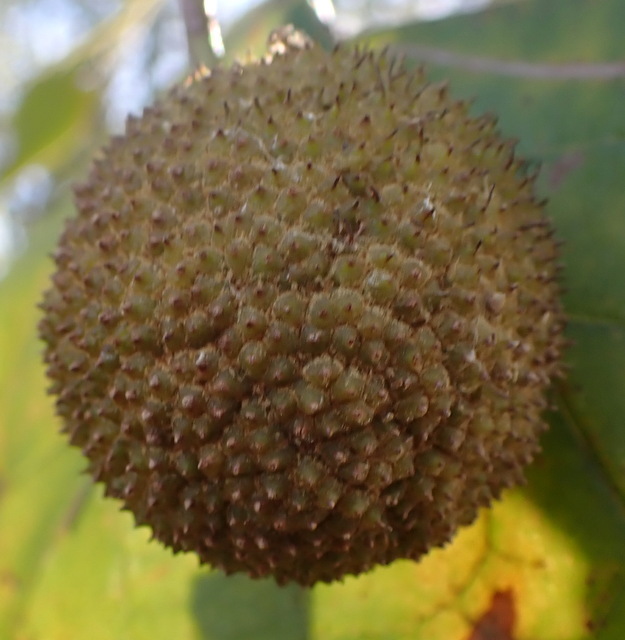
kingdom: Plantae
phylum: Tracheophyta
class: Magnoliopsida
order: Proteales
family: Platanaceae
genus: Platanus
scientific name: Platanus occidentalis
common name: American sycamore
